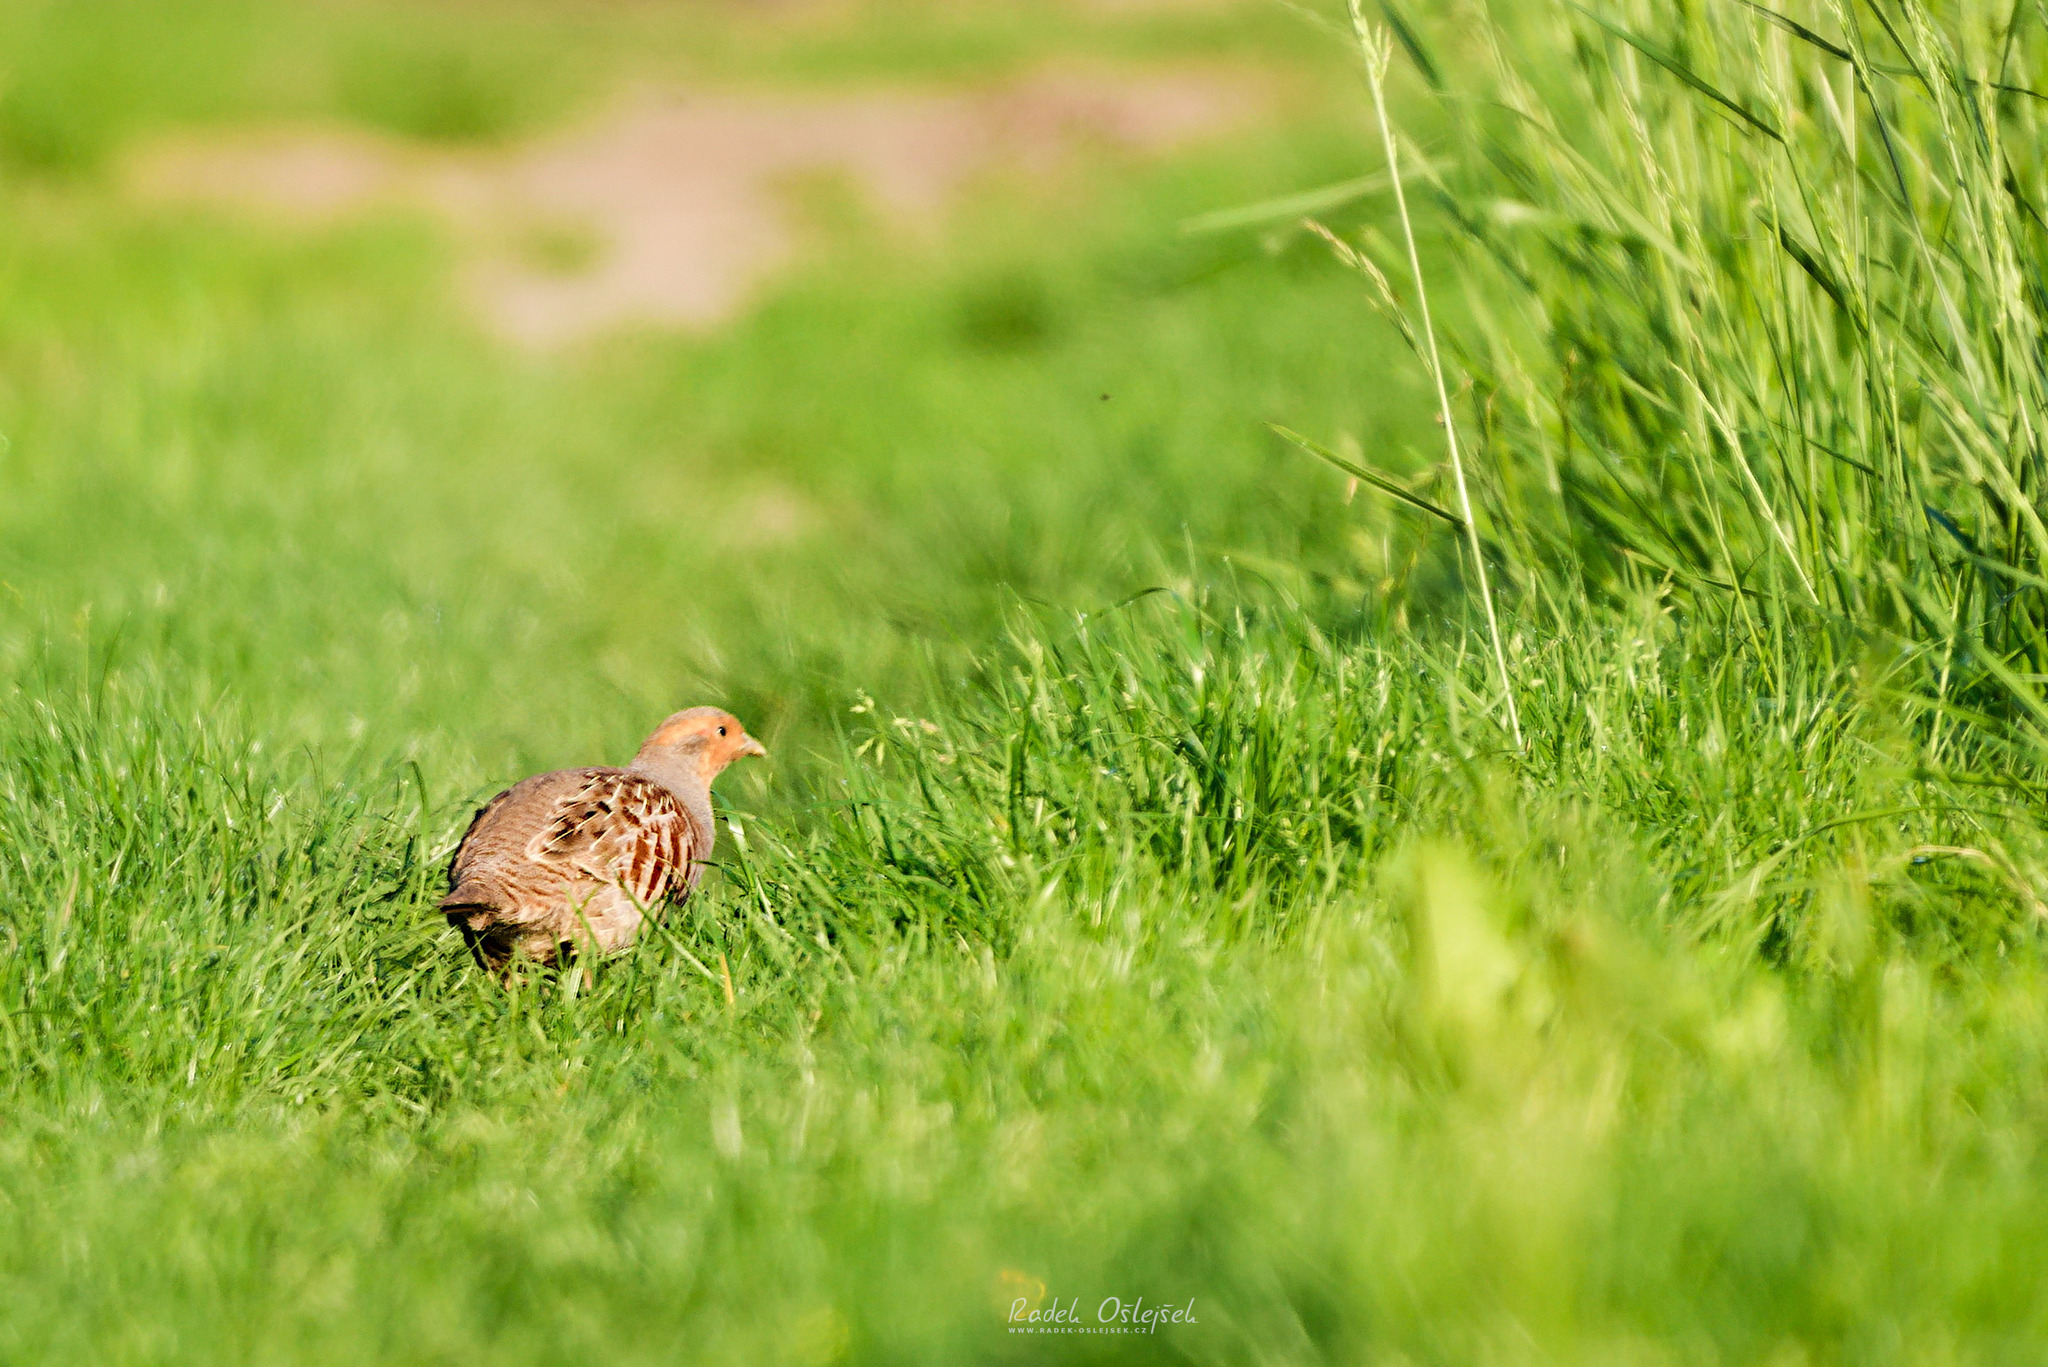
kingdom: Animalia
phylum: Chordata
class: Aves
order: Galliformes
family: Phasianidae
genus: Perdix
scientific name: Perdix perdix
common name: Grey partridge
